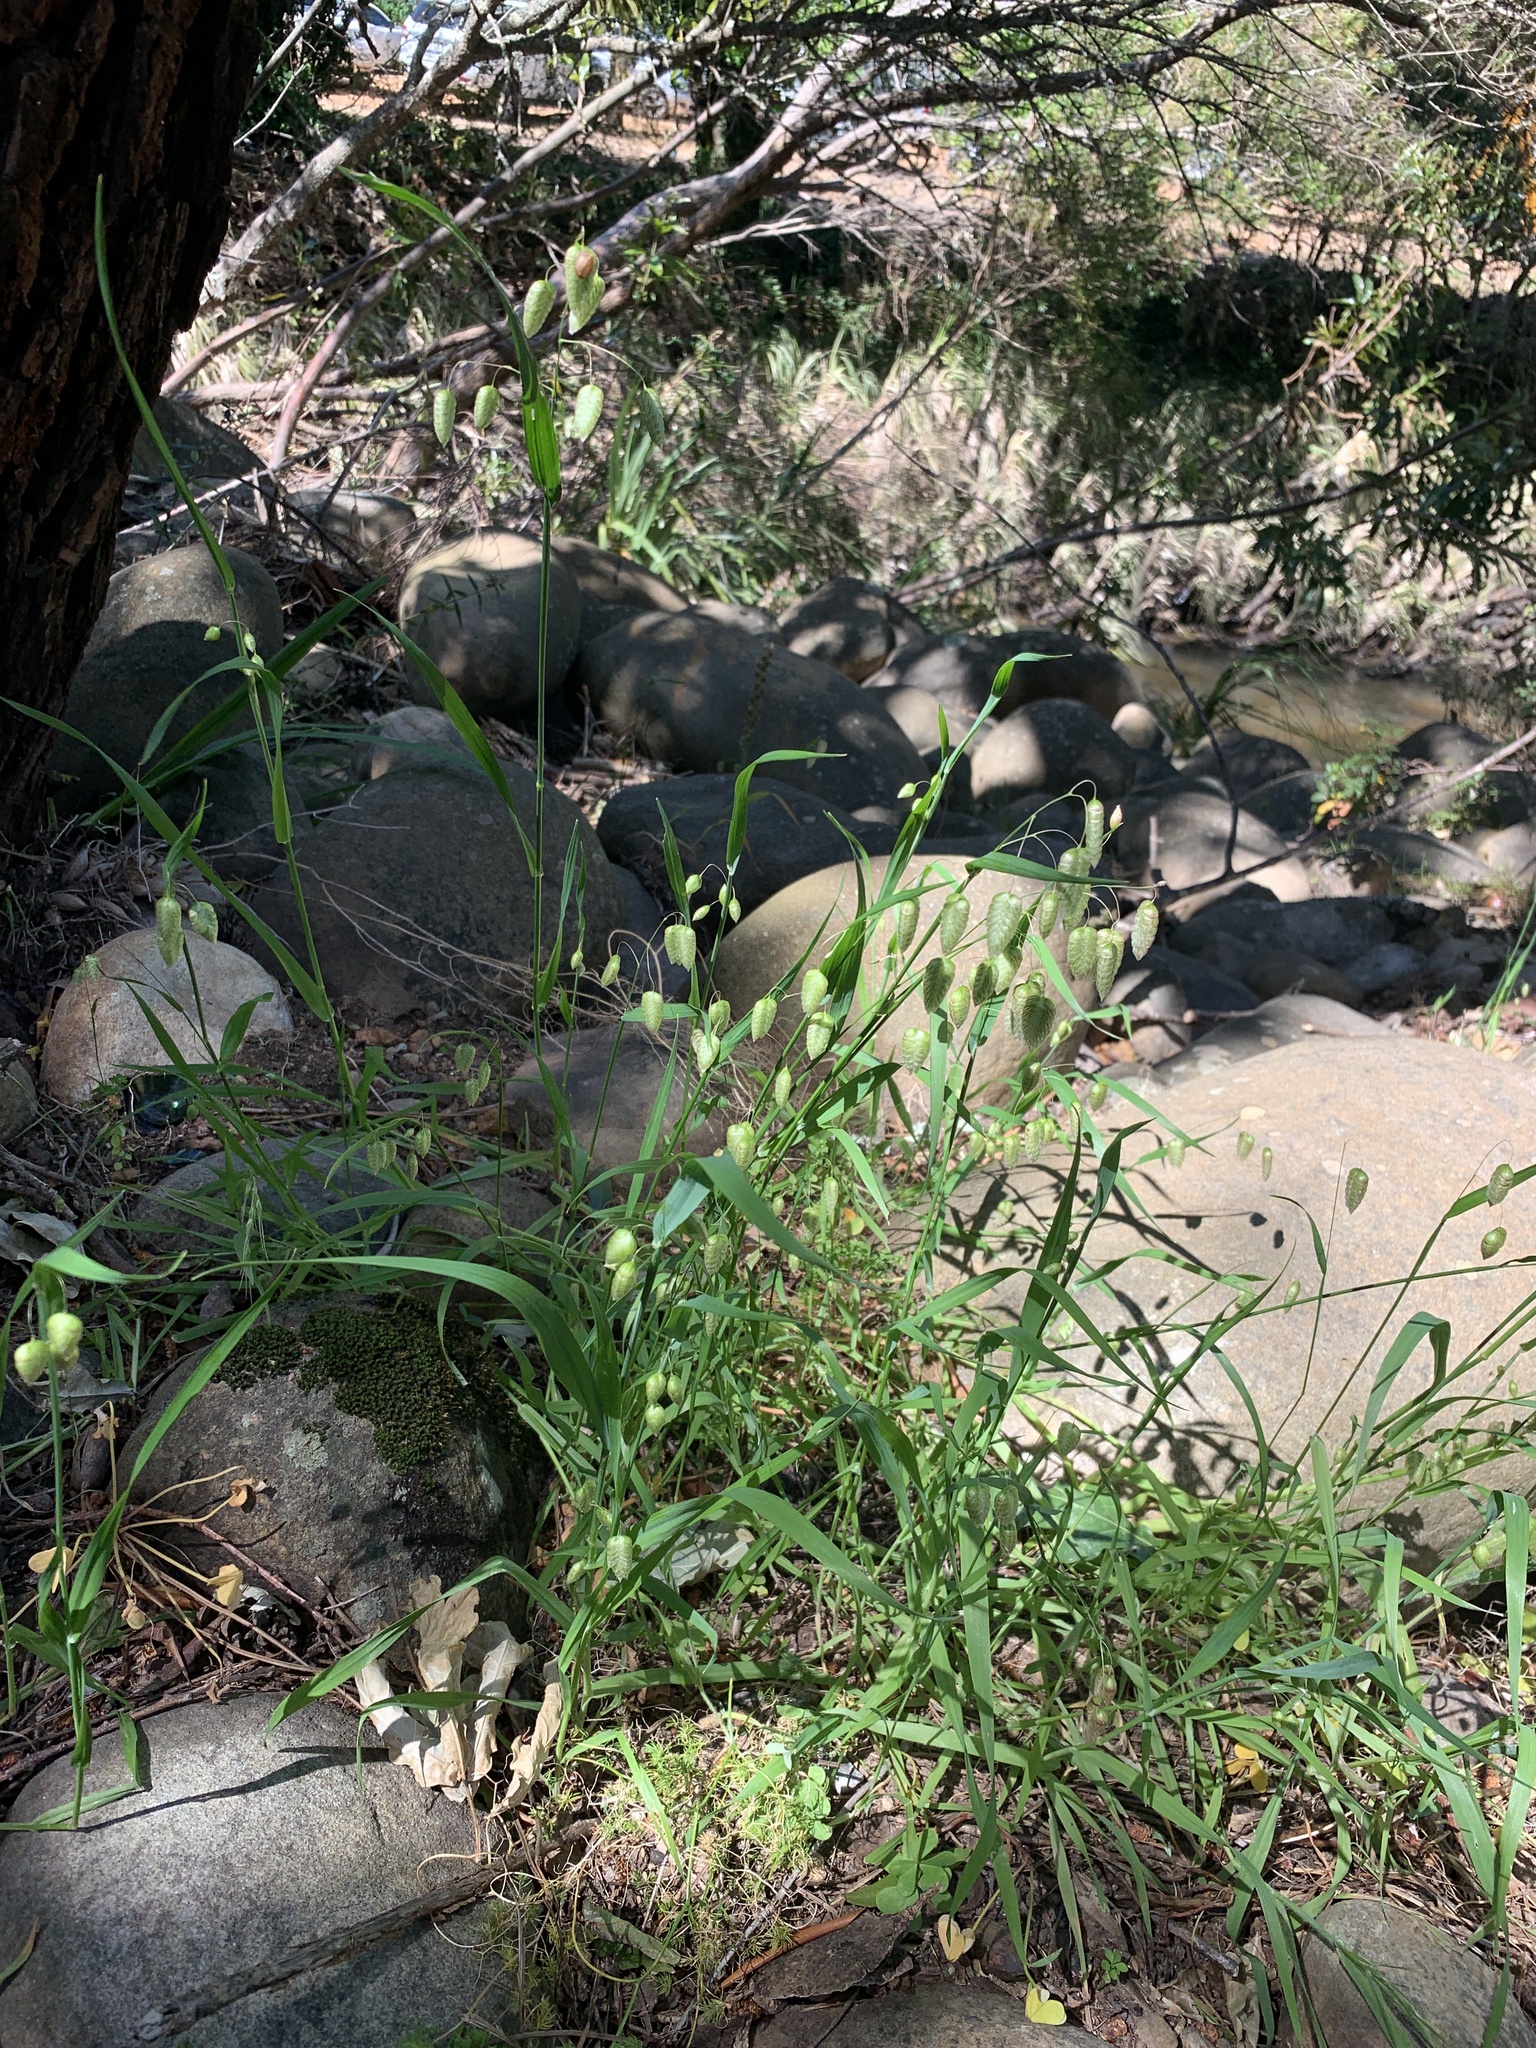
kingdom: Plantae
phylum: Tracheophyta
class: Liliopsida
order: Poales
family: Poaceae
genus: Briza
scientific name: Briza maxima
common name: Big quakinggrass
